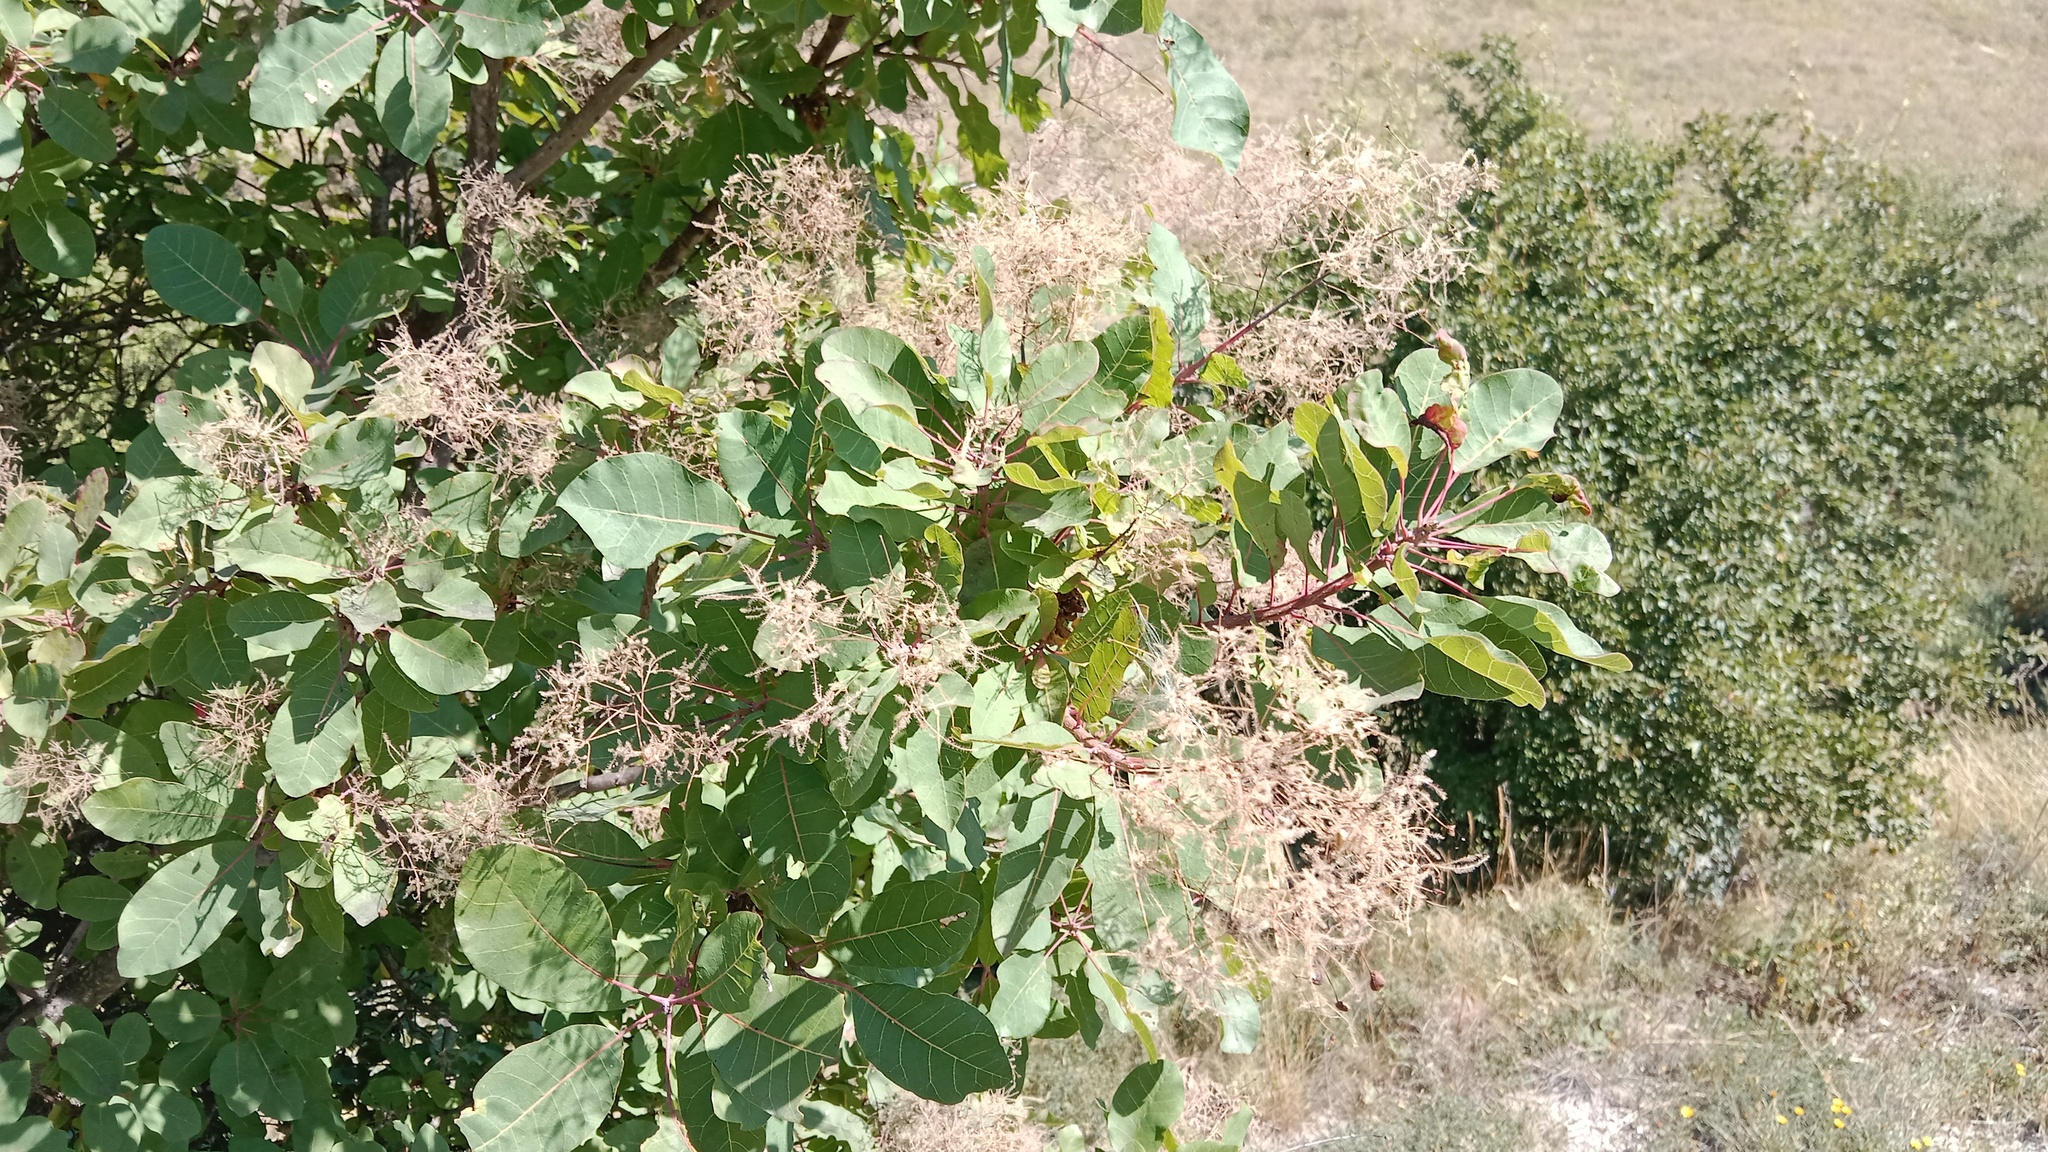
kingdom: Plantae
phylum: Tracheophyta
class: Magnoliopsida
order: Sapindales
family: Anacardiaceae
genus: Cotinus
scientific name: Cotinus coggygria
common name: Smoke-tree
